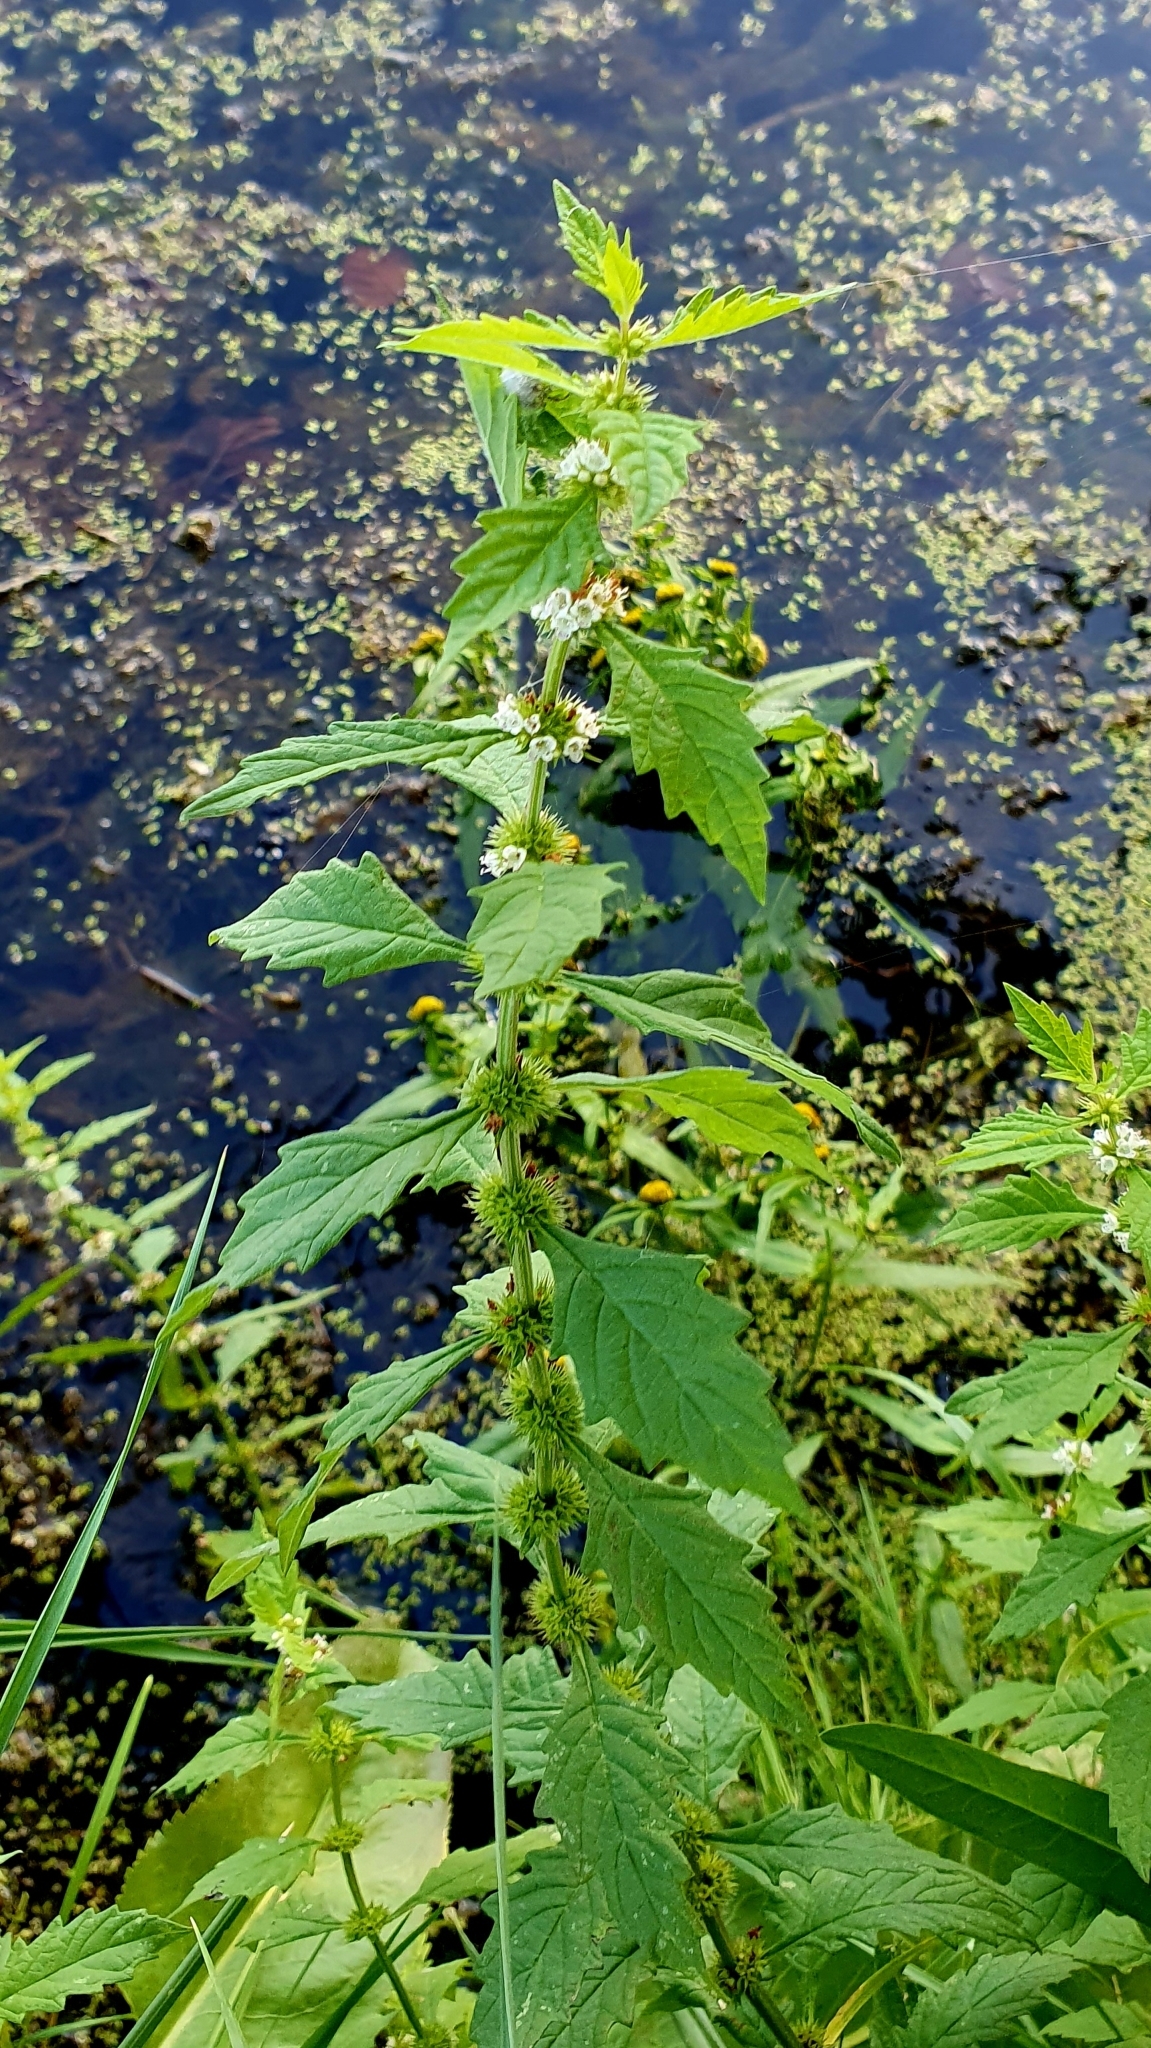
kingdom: Plantae
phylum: Tracheophyta
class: Magnoliopsida
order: Lamiales
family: Lamiaceae
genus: Lycopus
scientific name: Lycopus europaeus
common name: European bugleweed
